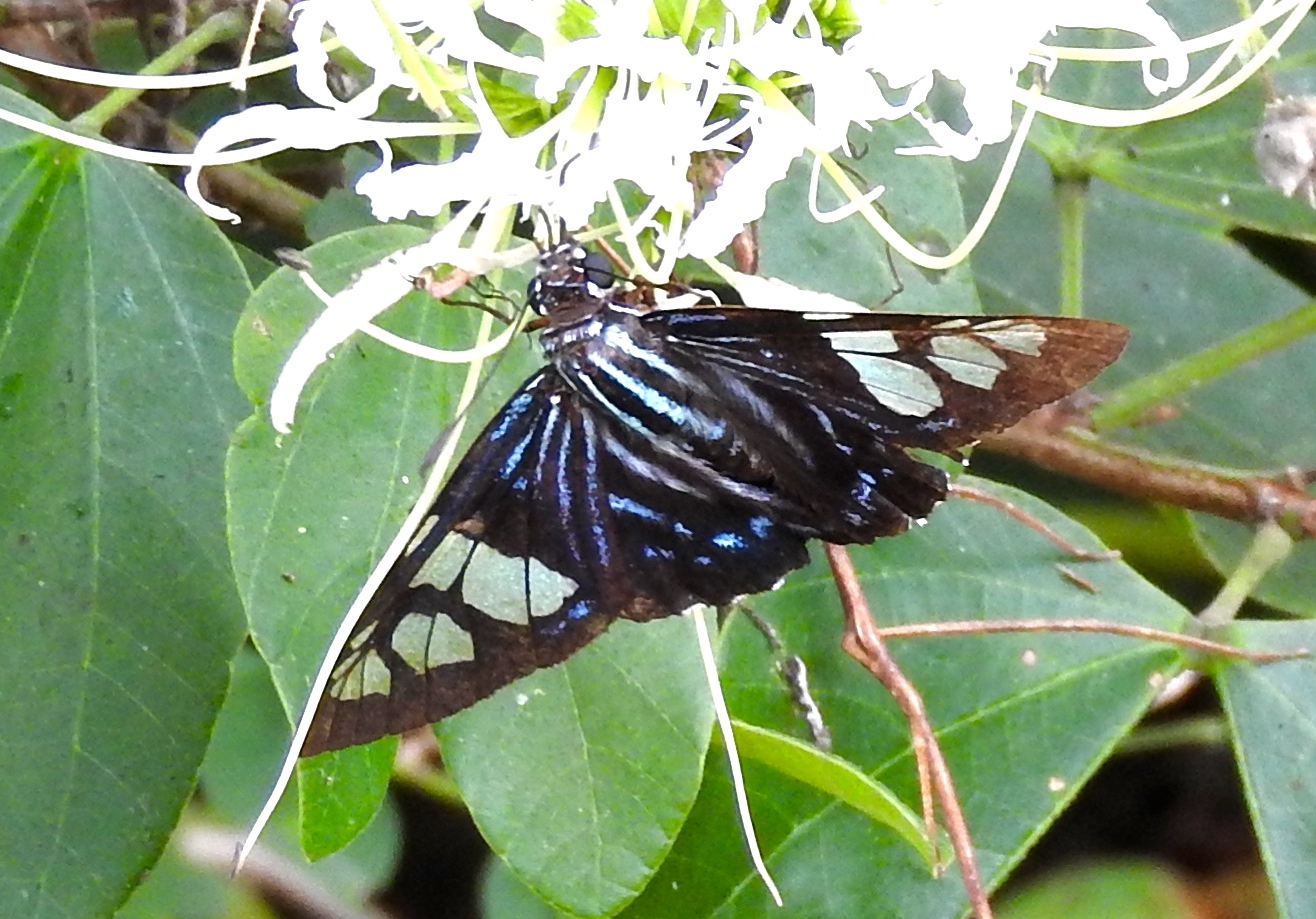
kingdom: Animalia
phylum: Arthropoda
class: Insecta
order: Lepidoptera
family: Hesperiidae
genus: Phocides
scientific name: Phocides pigmalion
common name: Mangrove skipper
